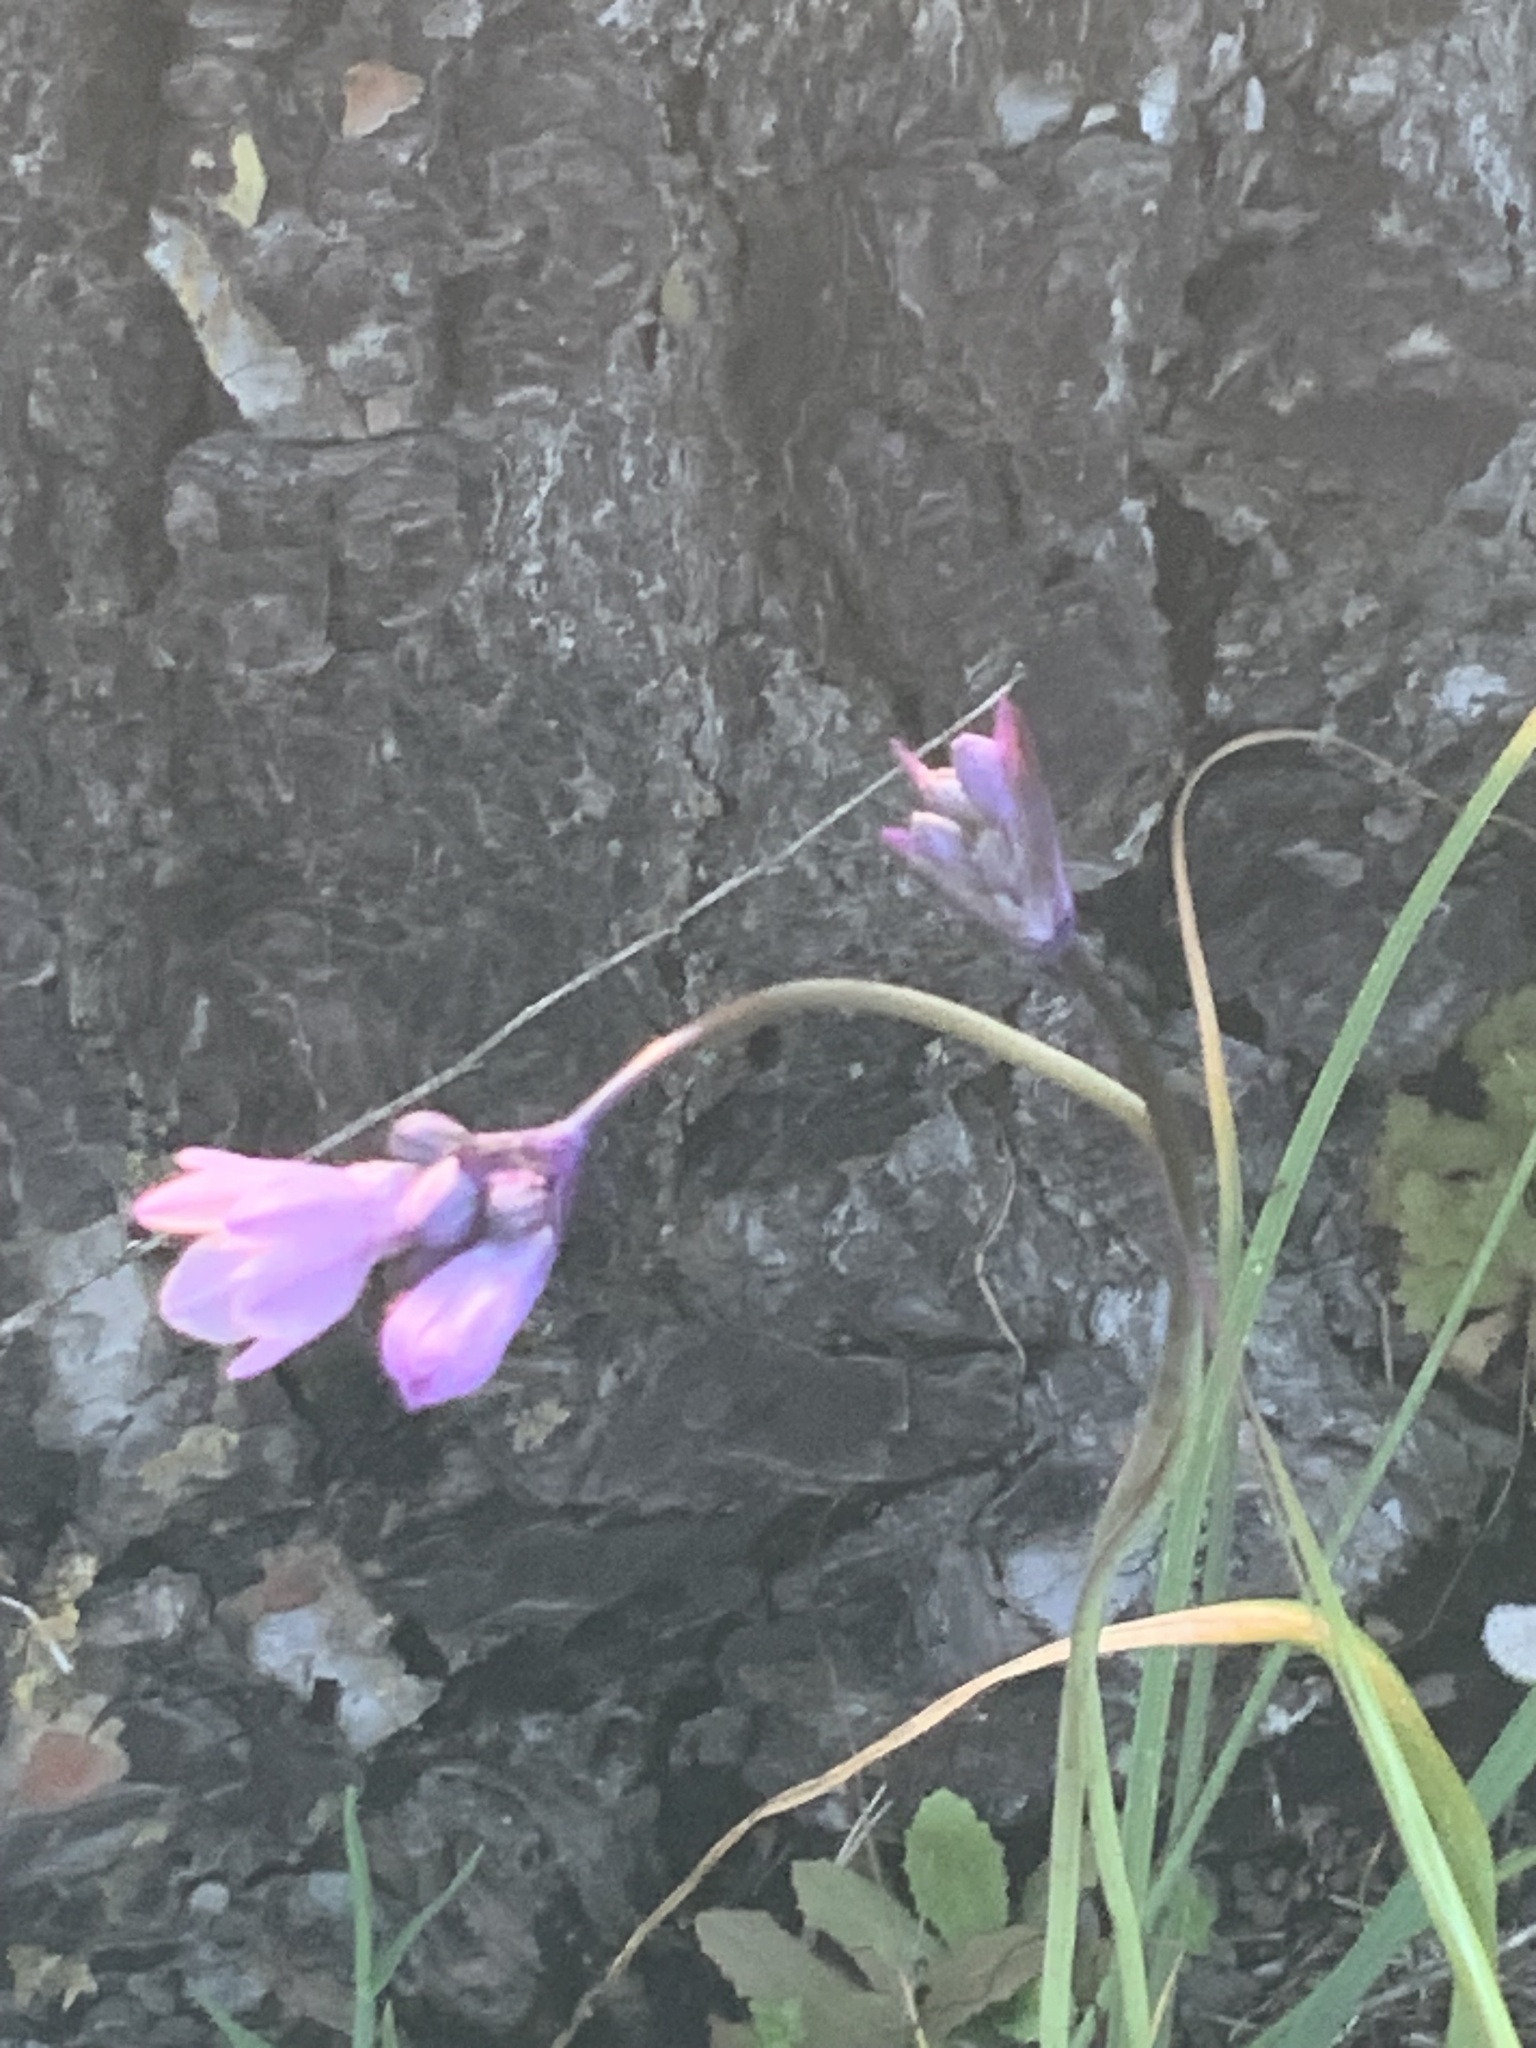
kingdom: Plantae
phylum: Tracheophyta
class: Liliopsida
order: Asparagales
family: Asparagaceae
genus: Dipterostemon
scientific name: Dipterostemon capitatus
